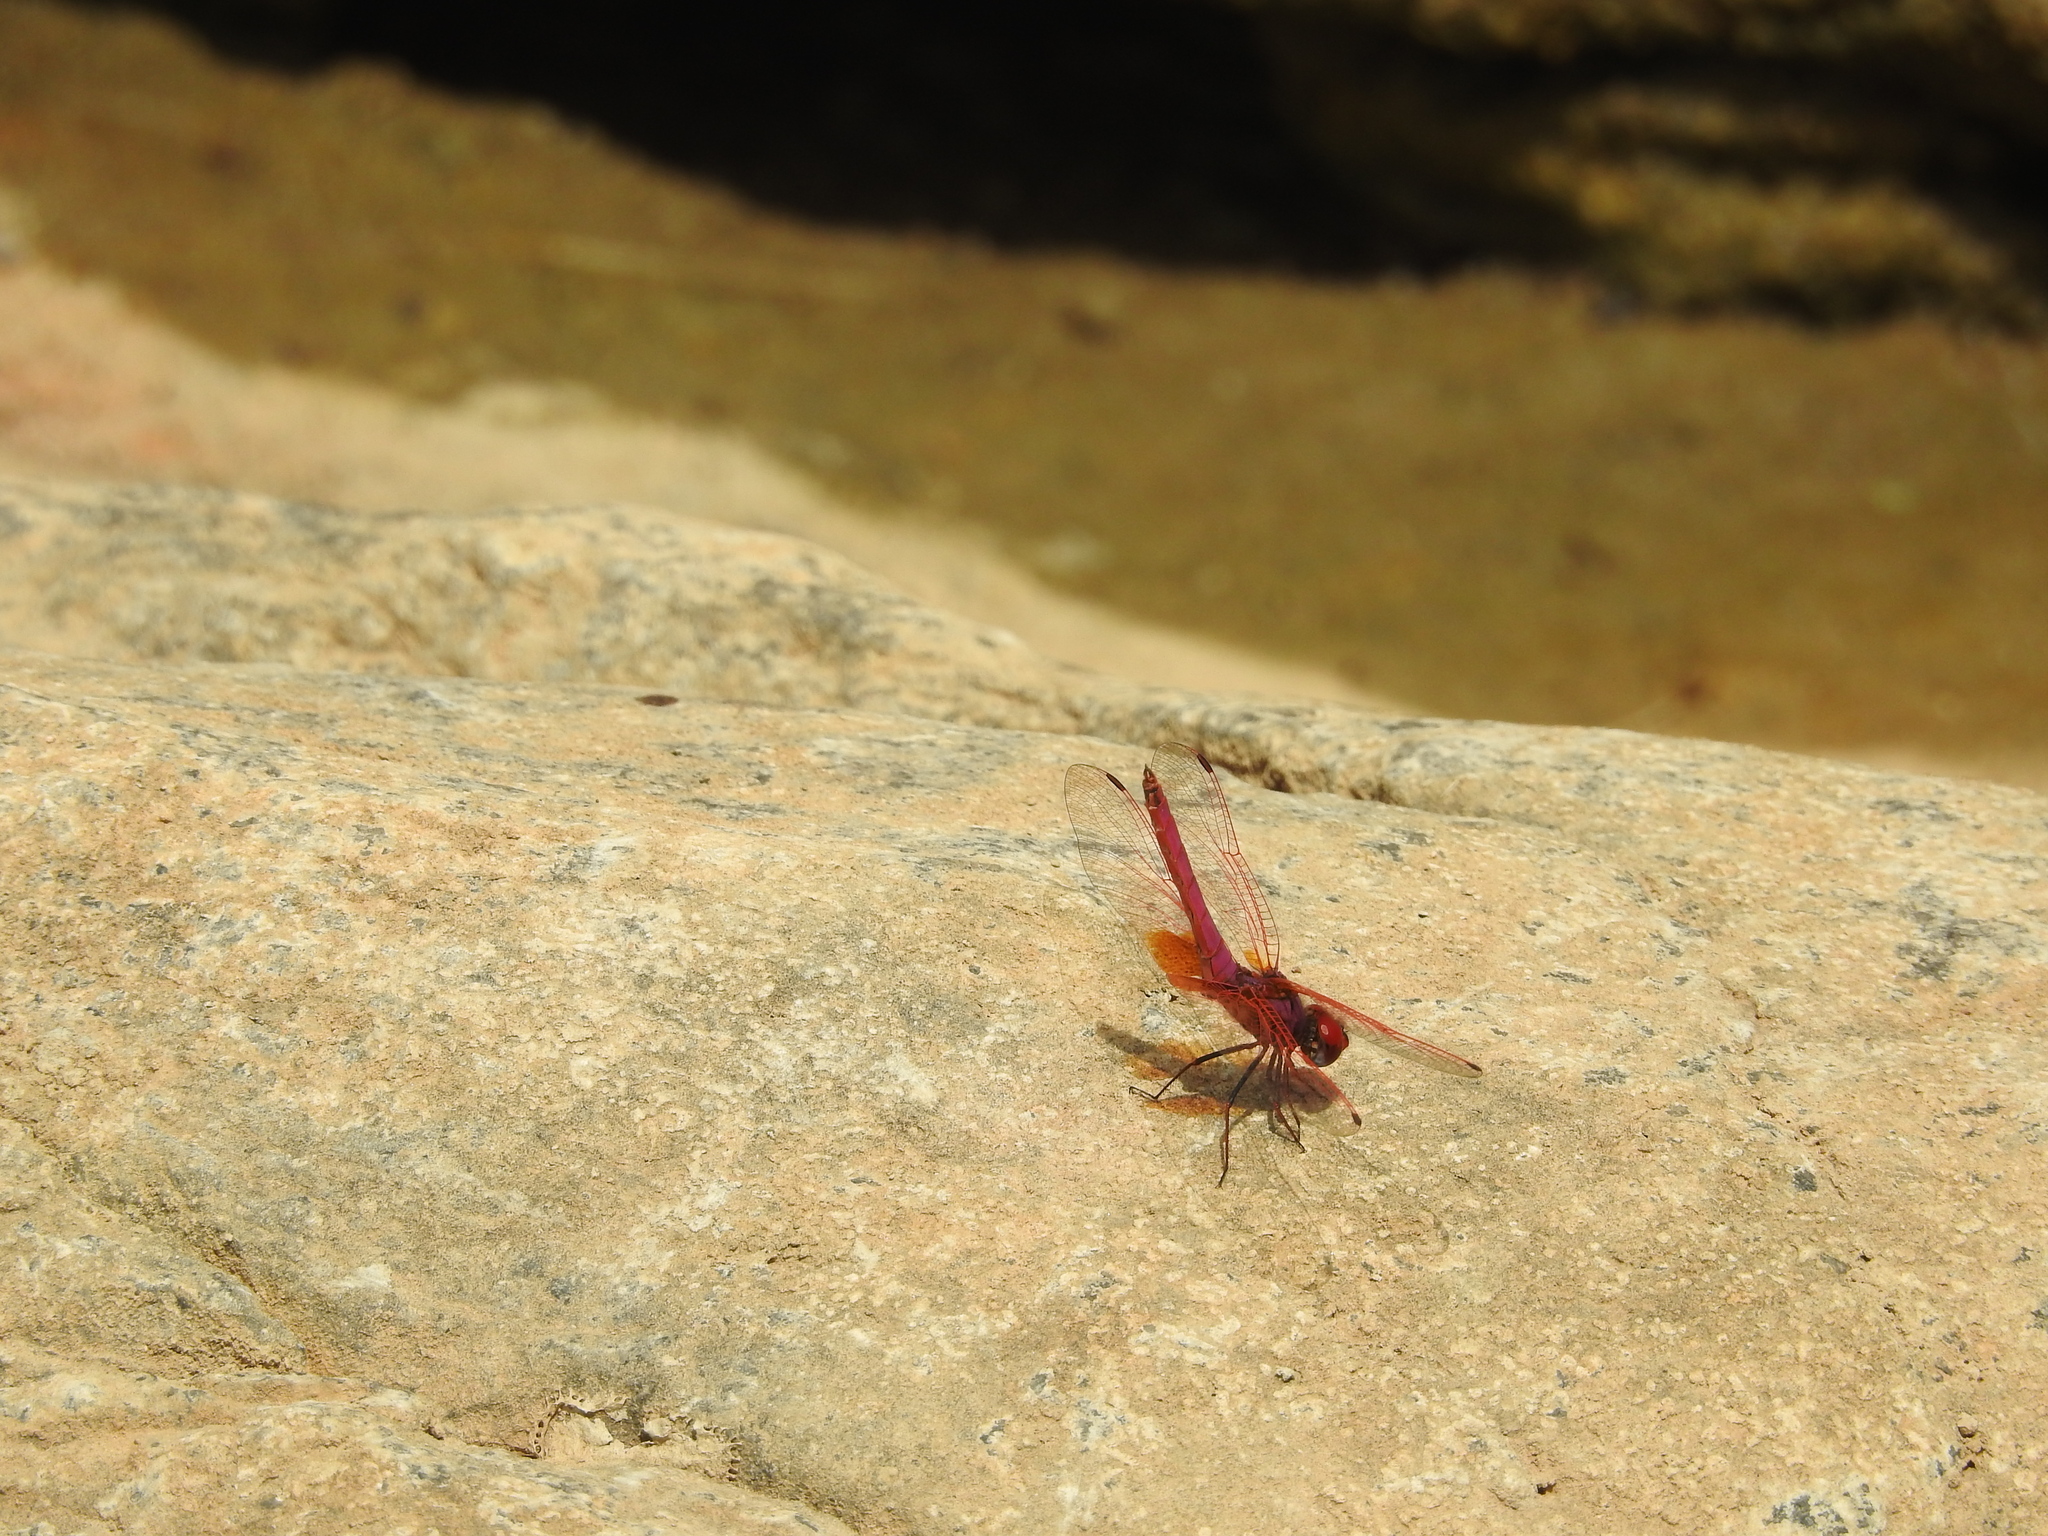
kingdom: Animalia
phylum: Arthropoda
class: Insecta
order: Odonata
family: Libellulidae
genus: Trithemis
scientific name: Trithemis aurora
